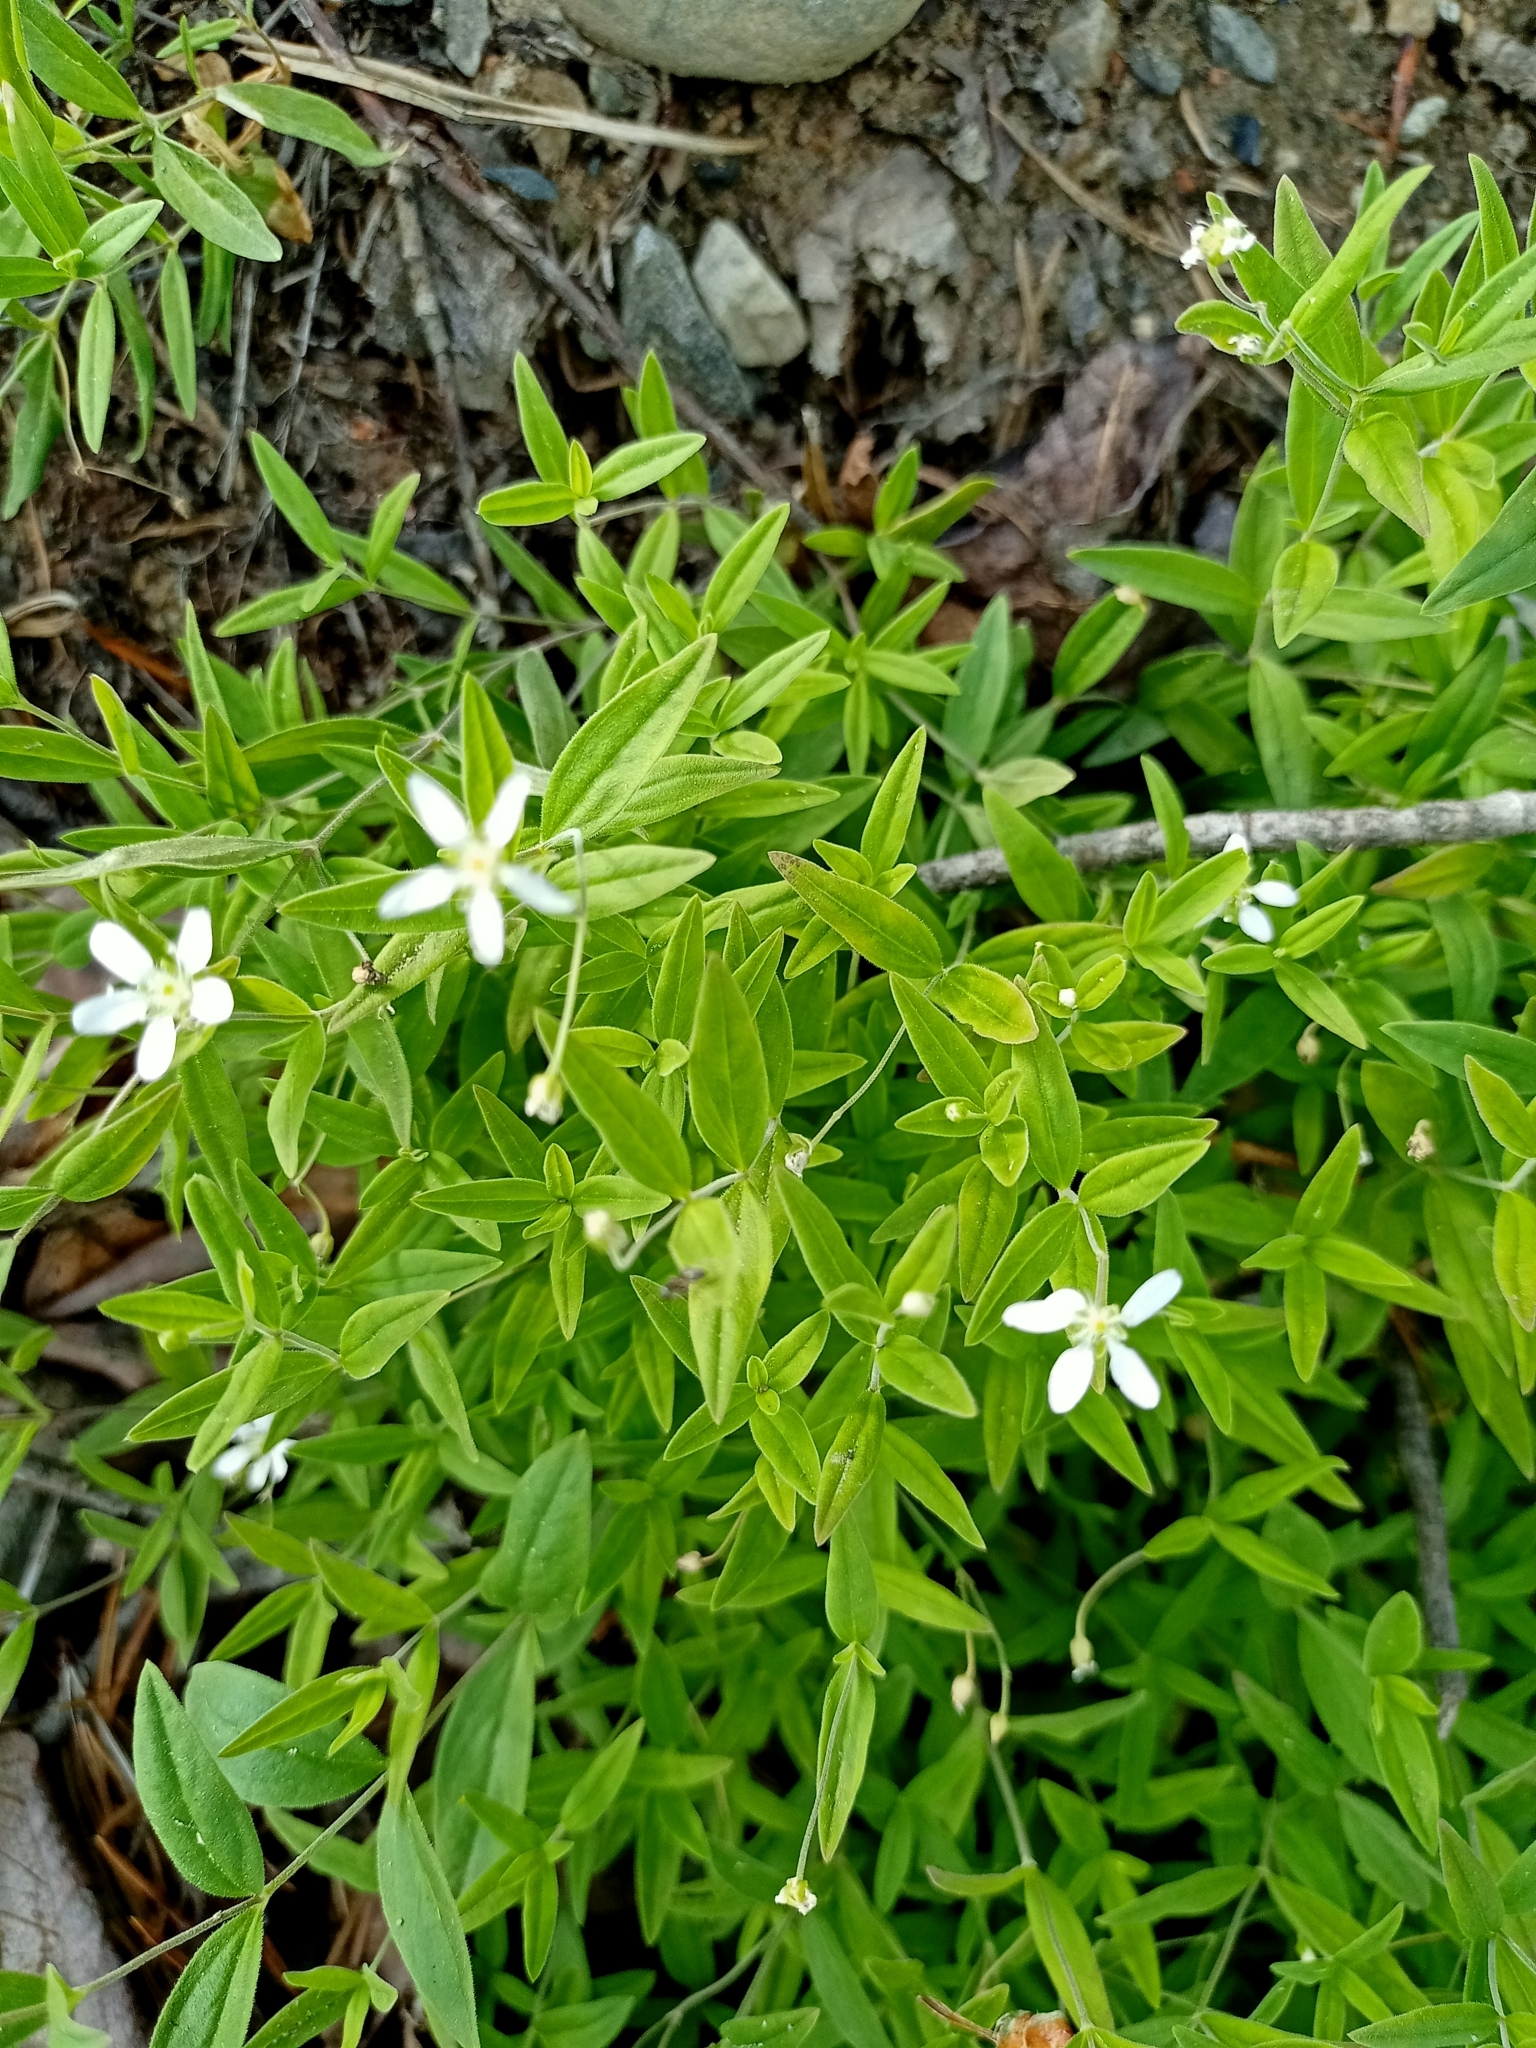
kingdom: Plantae
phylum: Tracheophyta
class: Magnoliopsida
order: Caryophyllales
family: Caryophyllaceae
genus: Moehringia
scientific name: Moehringia lateriflora
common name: Blunt-leaved sandwort
